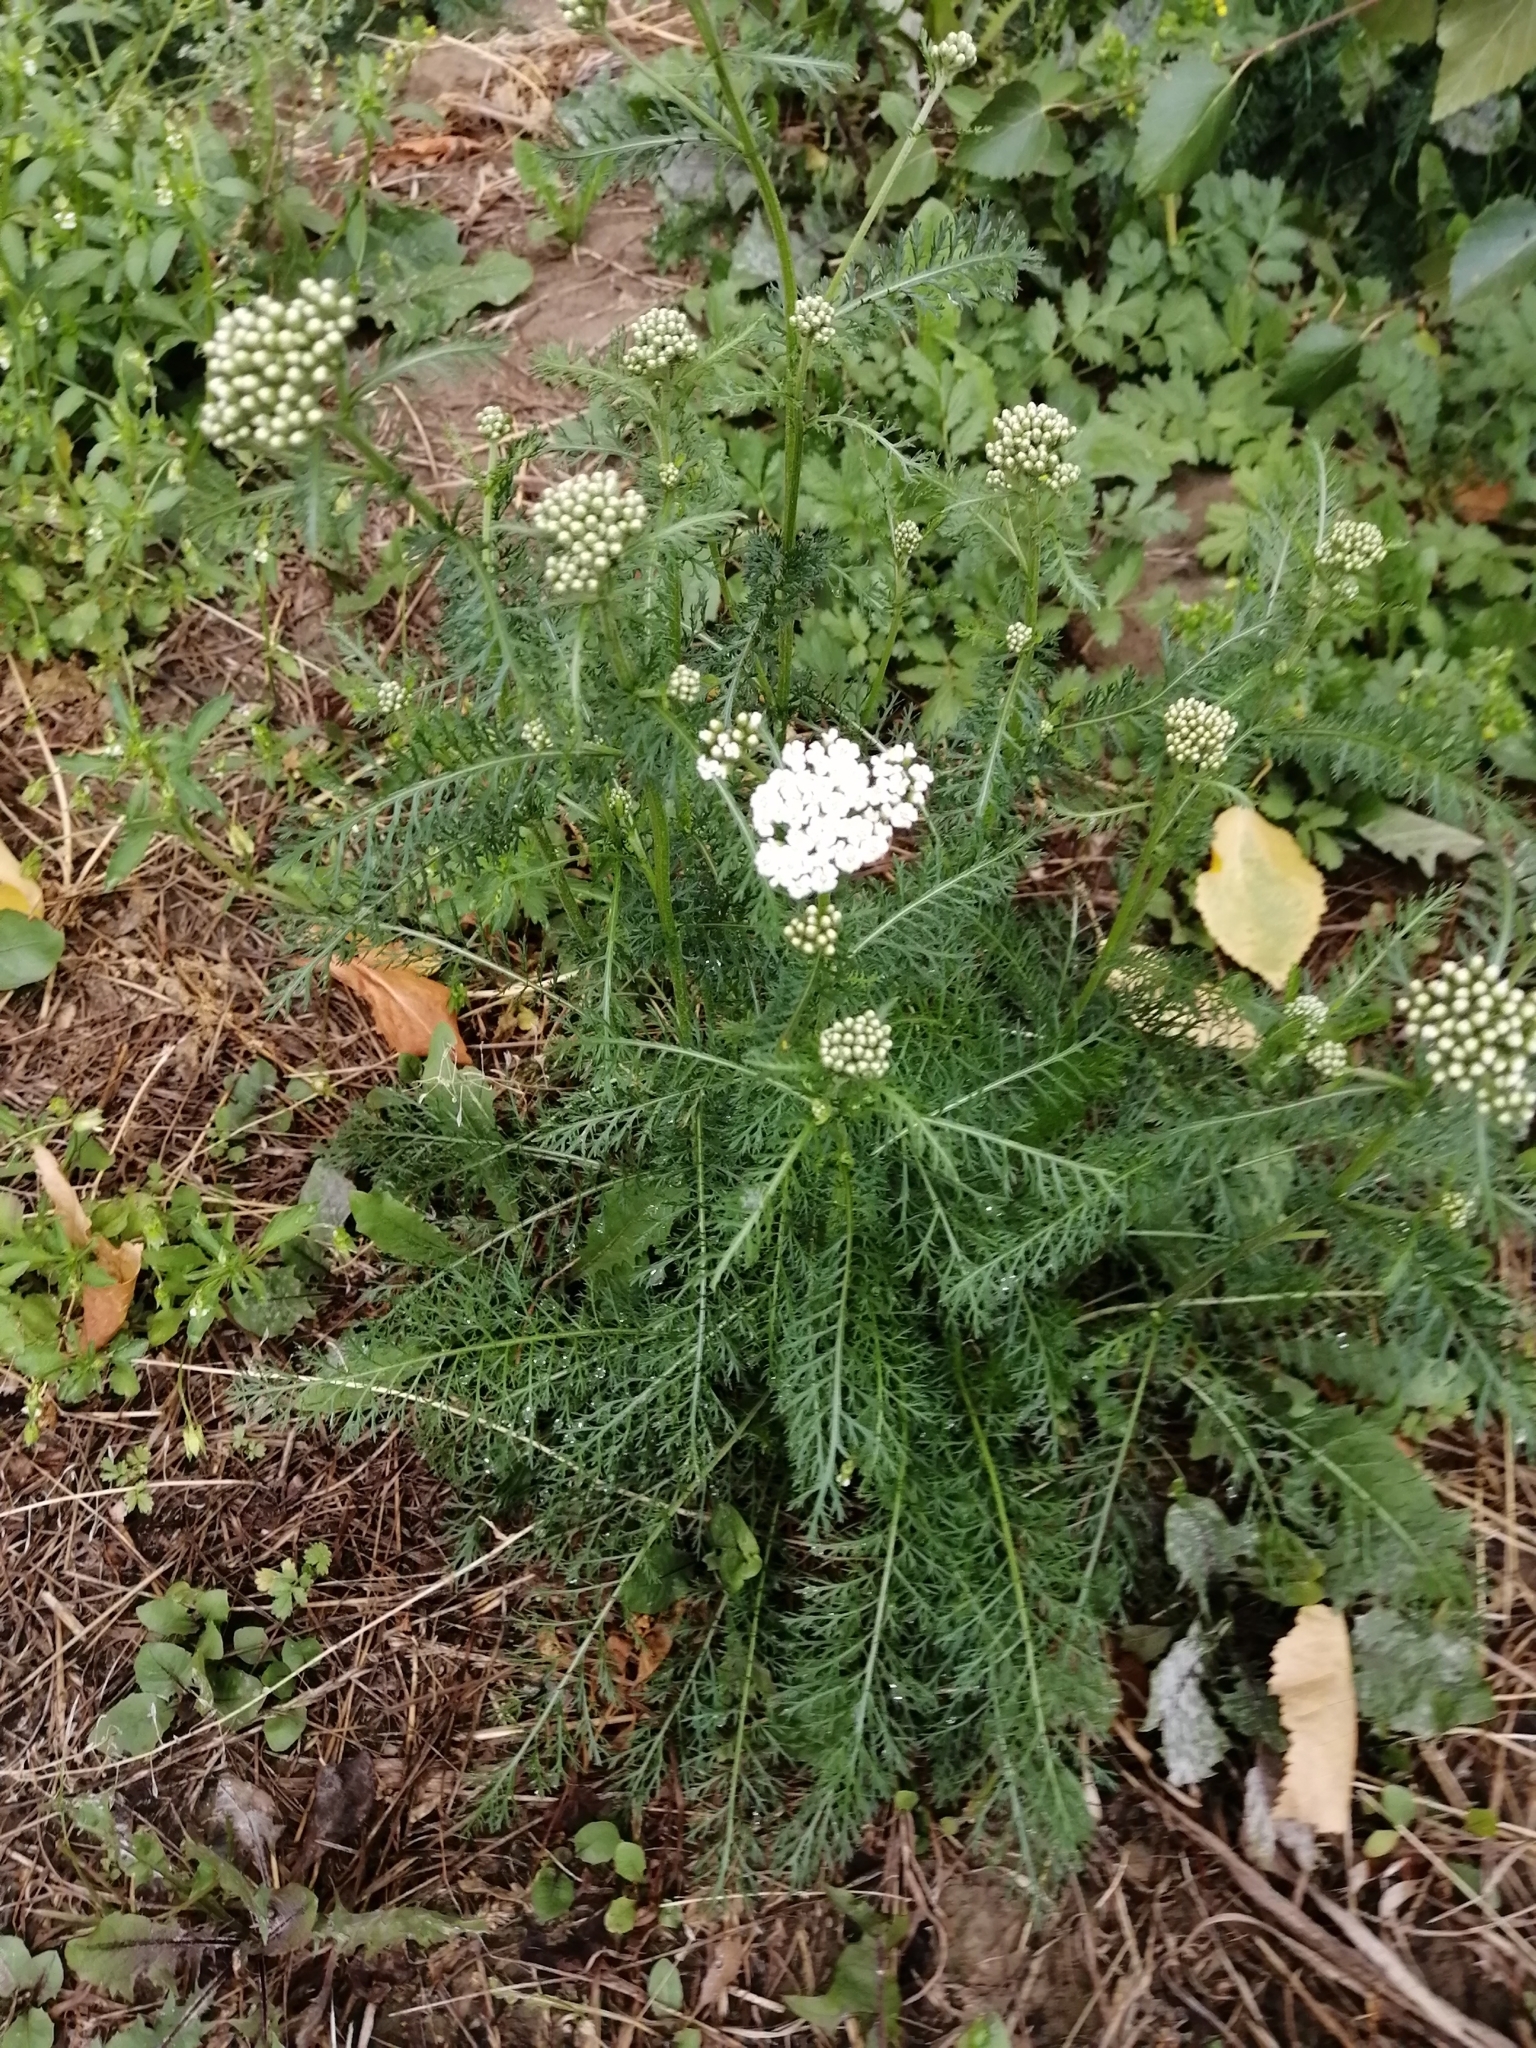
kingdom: Plantae
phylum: Tracheophyta
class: Magnoliopsida
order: Asterales
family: Asteraceae
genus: Achillea
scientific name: Achillea millefolium
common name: Yarrow
